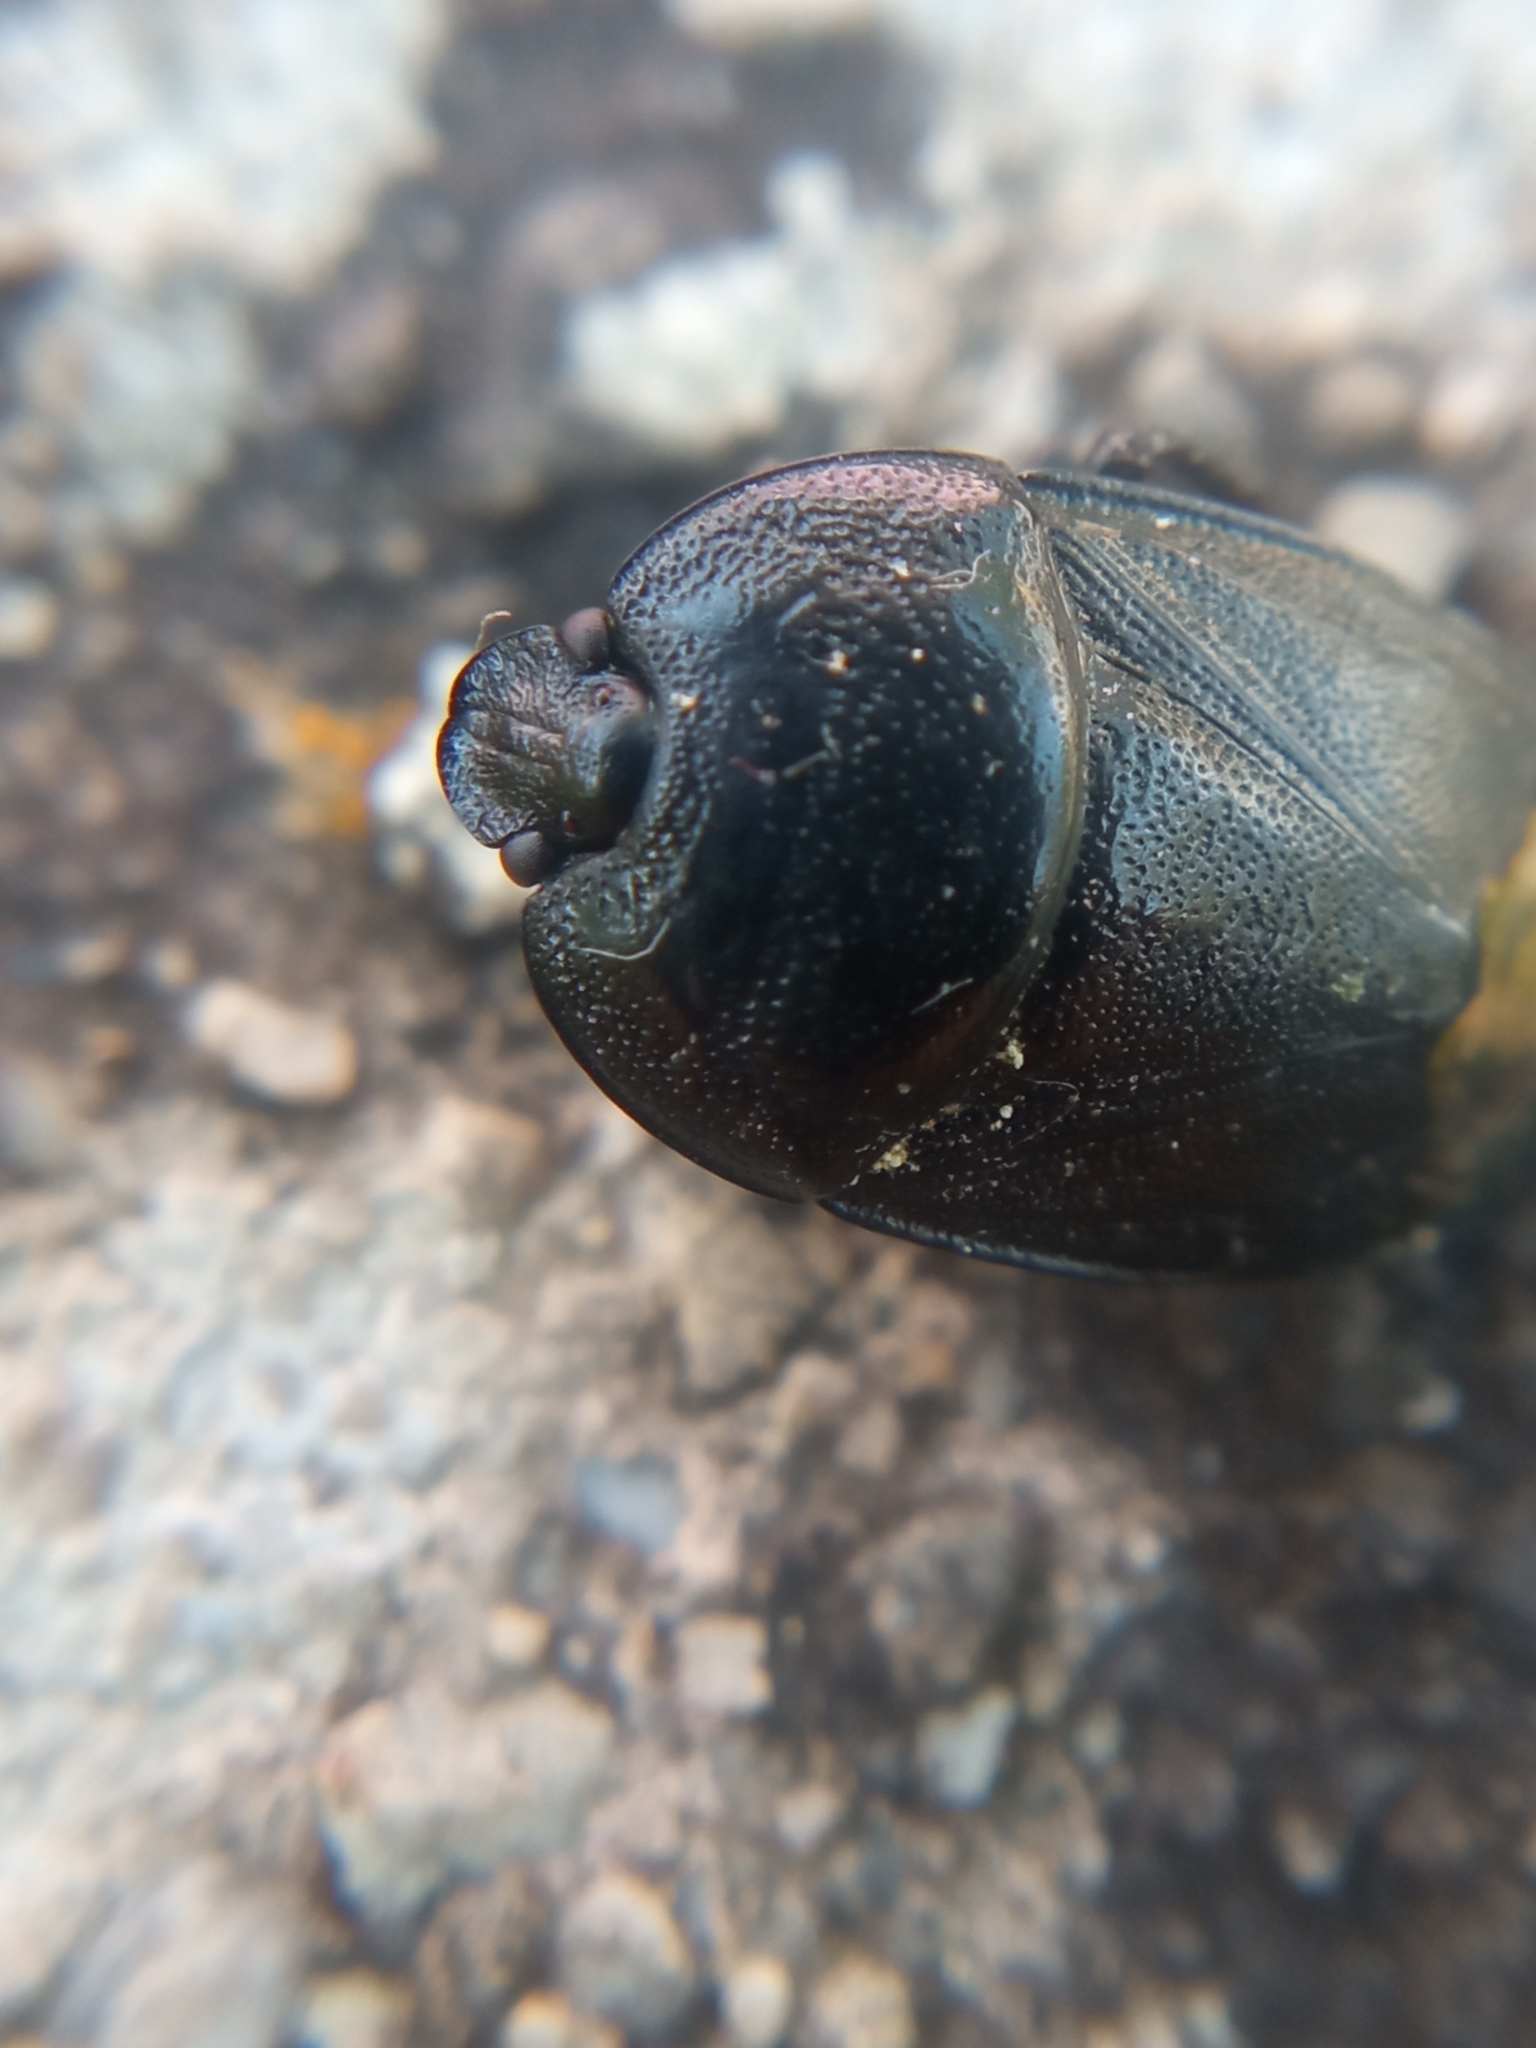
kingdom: Animalia
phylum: Arthropoda
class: Insecta
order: Hemiptera
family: Cydnidae
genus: Sehirus
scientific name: Sehirus luctuosus
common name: Forget-me-not shieldbug
